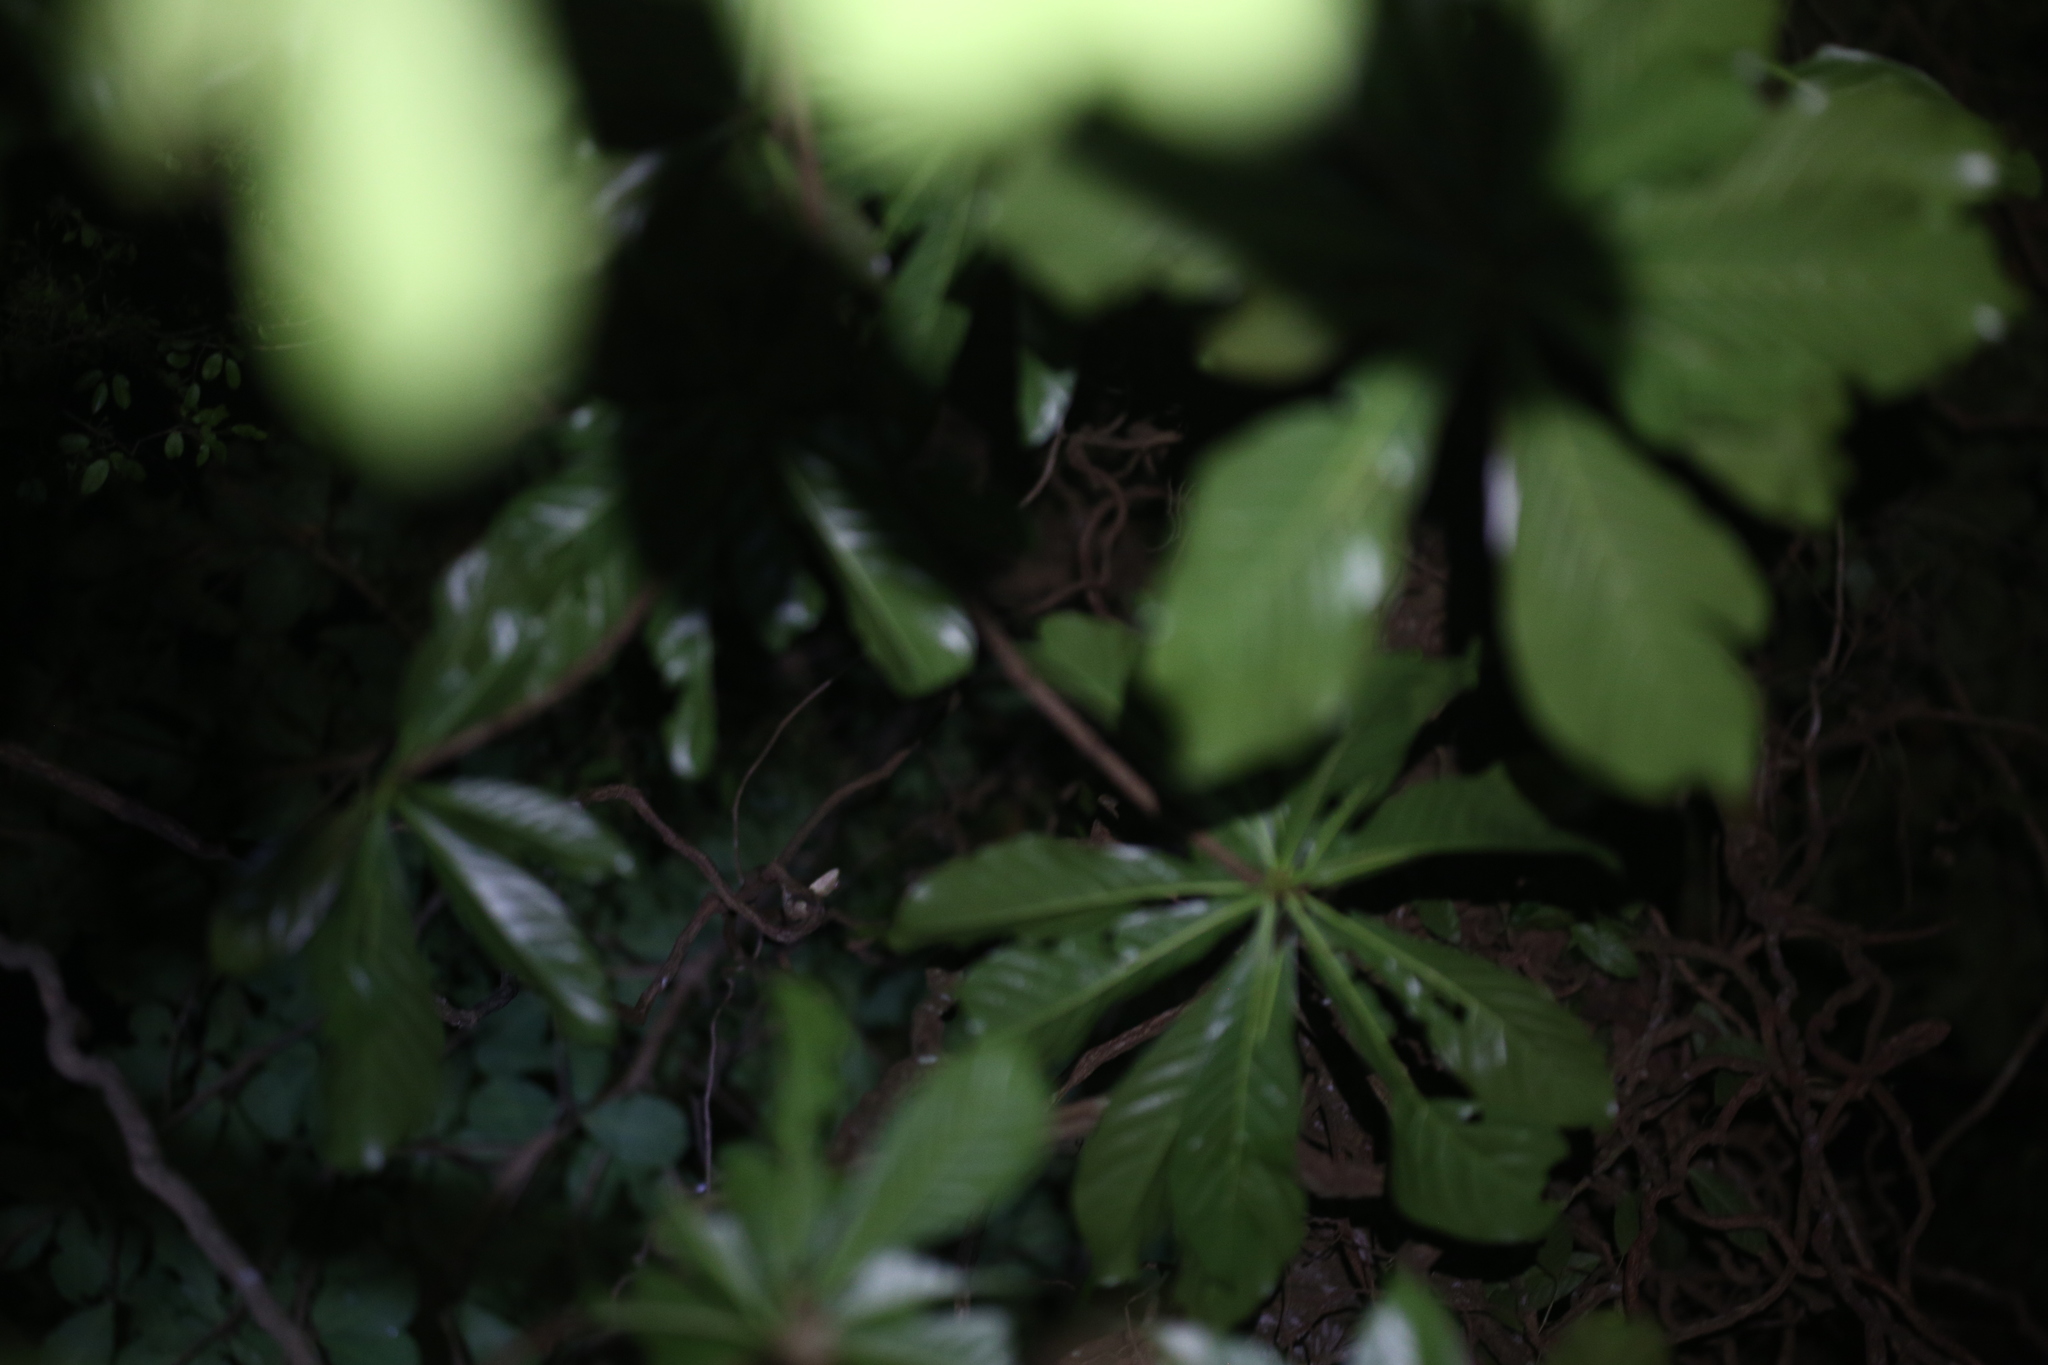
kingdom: Animalia
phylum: Chordata
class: Squamata
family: Diplodactylidae
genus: Mniarogekko
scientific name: Mniarogekko jalu
